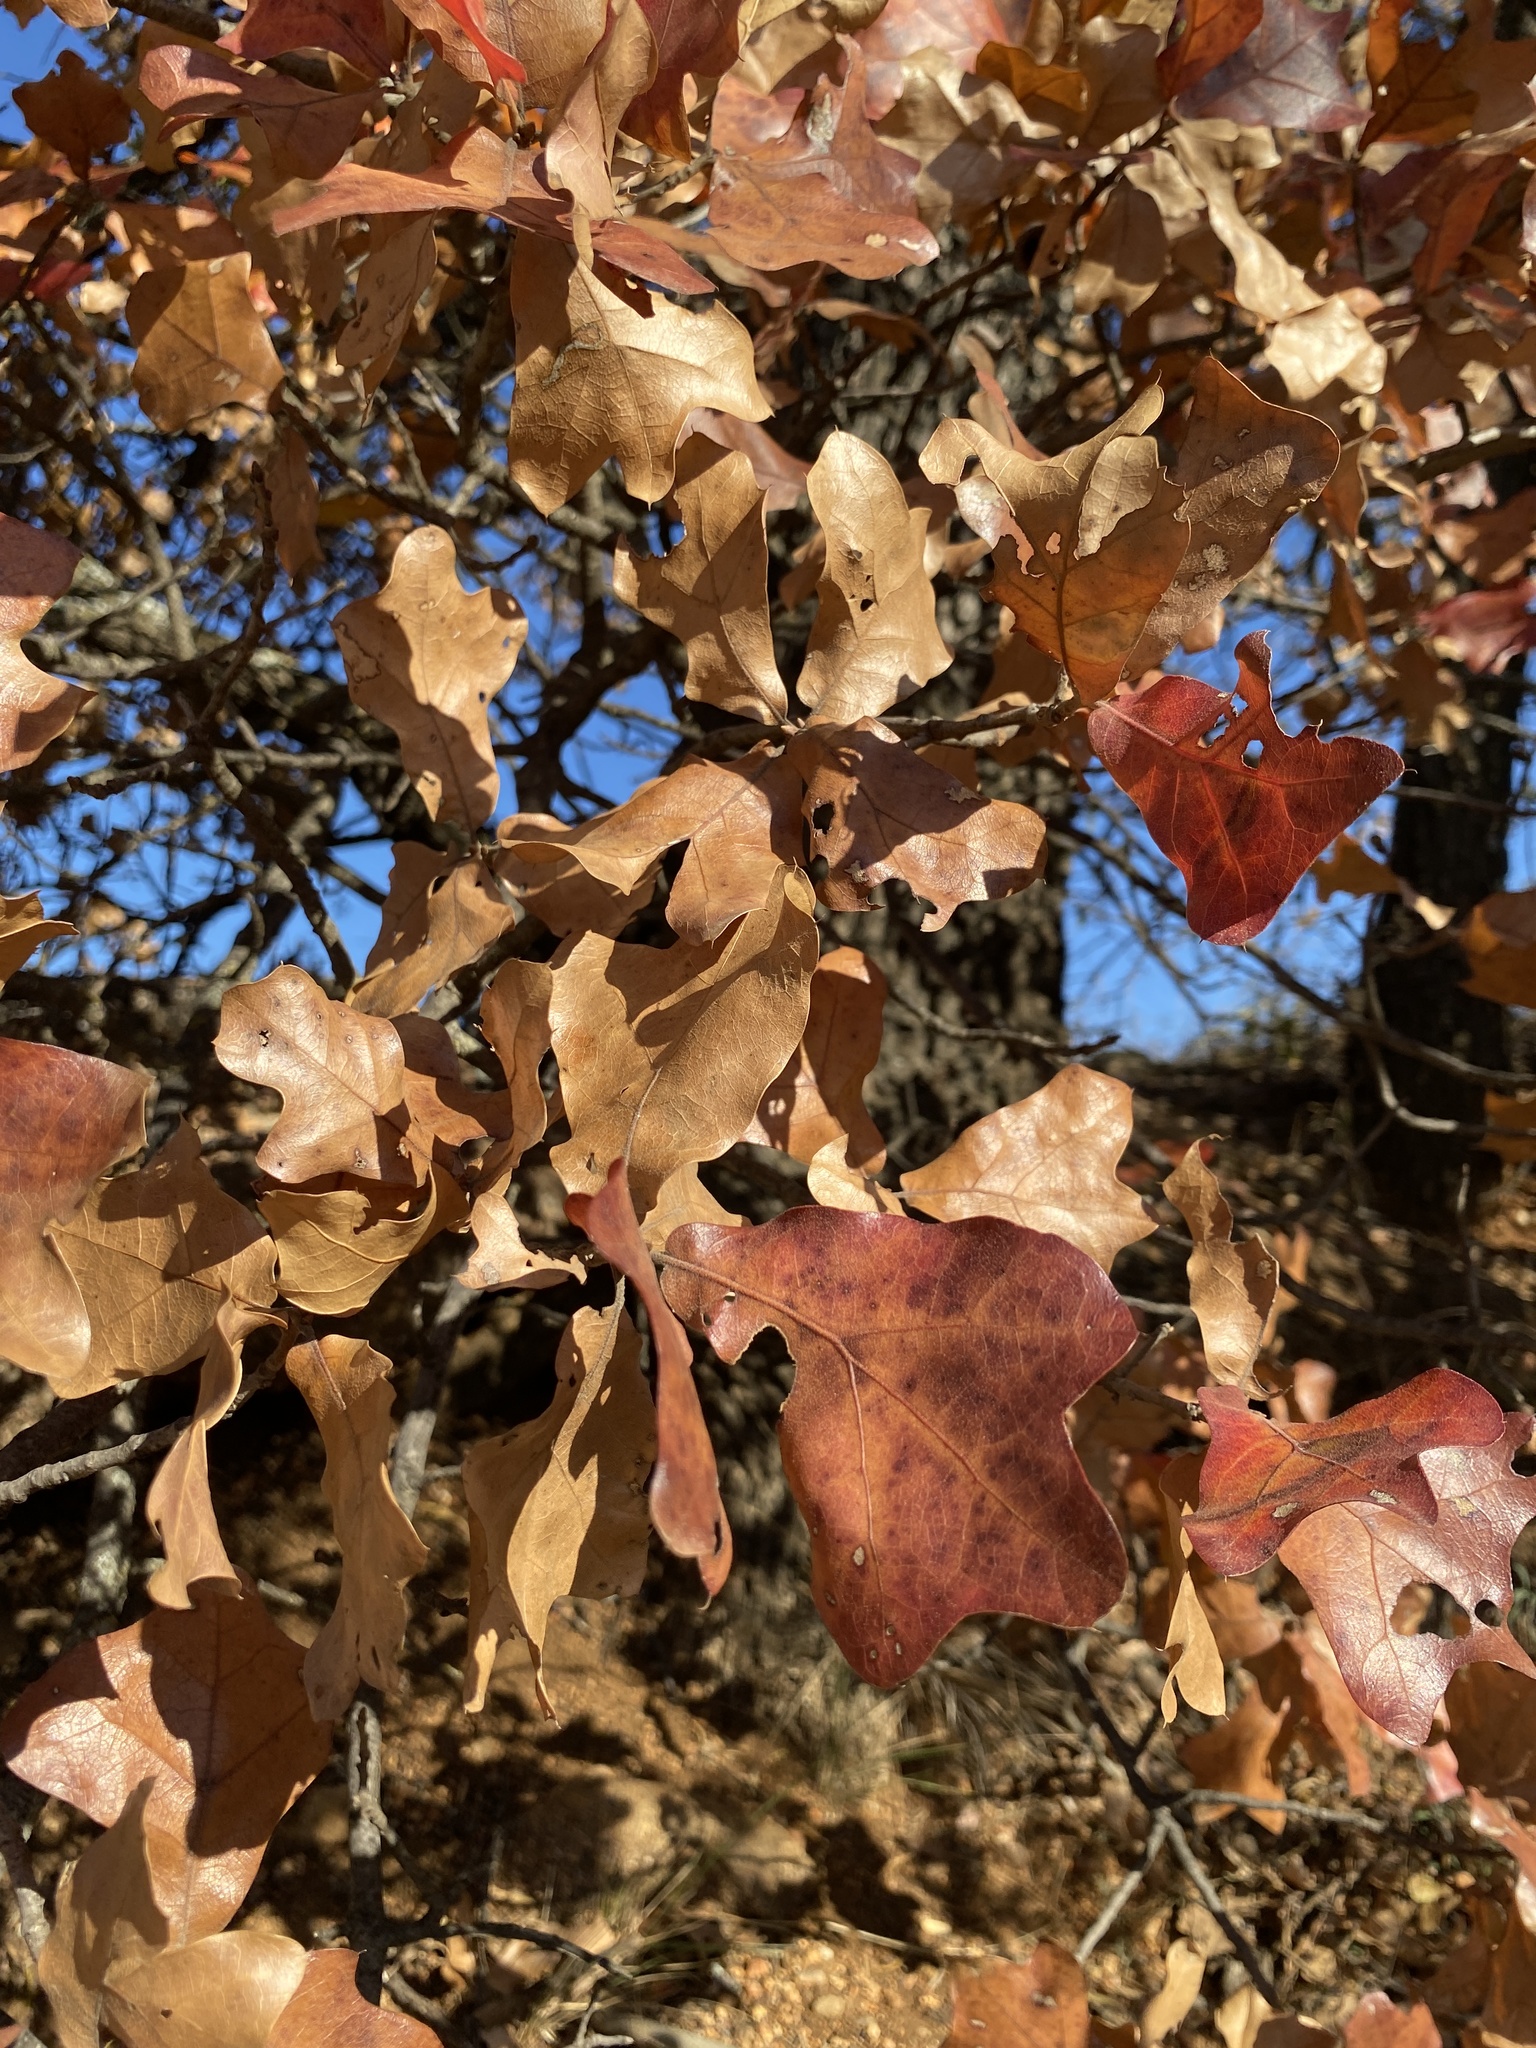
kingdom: Plantae
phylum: Tracheophyta
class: Magnoliopsida
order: Fagales
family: Fagaceae
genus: Quercus
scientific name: Quercus marilandica
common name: Blackjack oak
